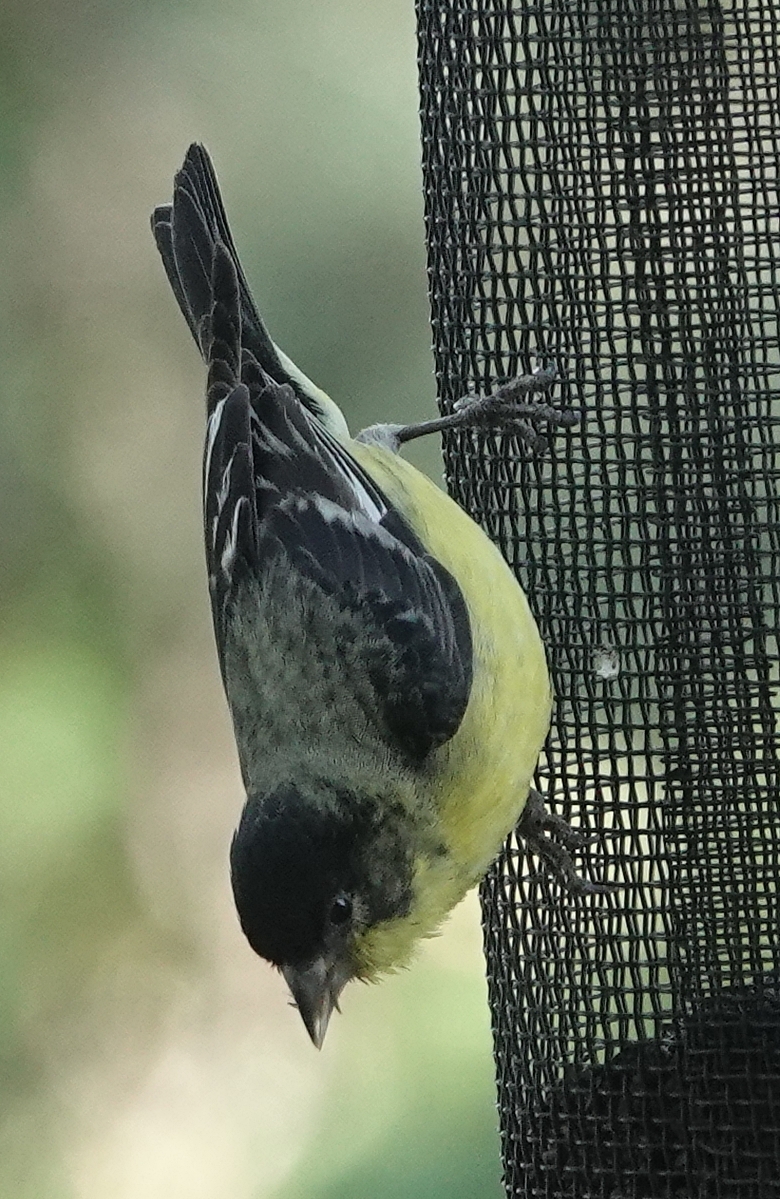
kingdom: Animalia
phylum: Chordata
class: Aves
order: Passeriformes
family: Fringillidae
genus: Spinus
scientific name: Spinus psaltria
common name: Lesser goldfinch
